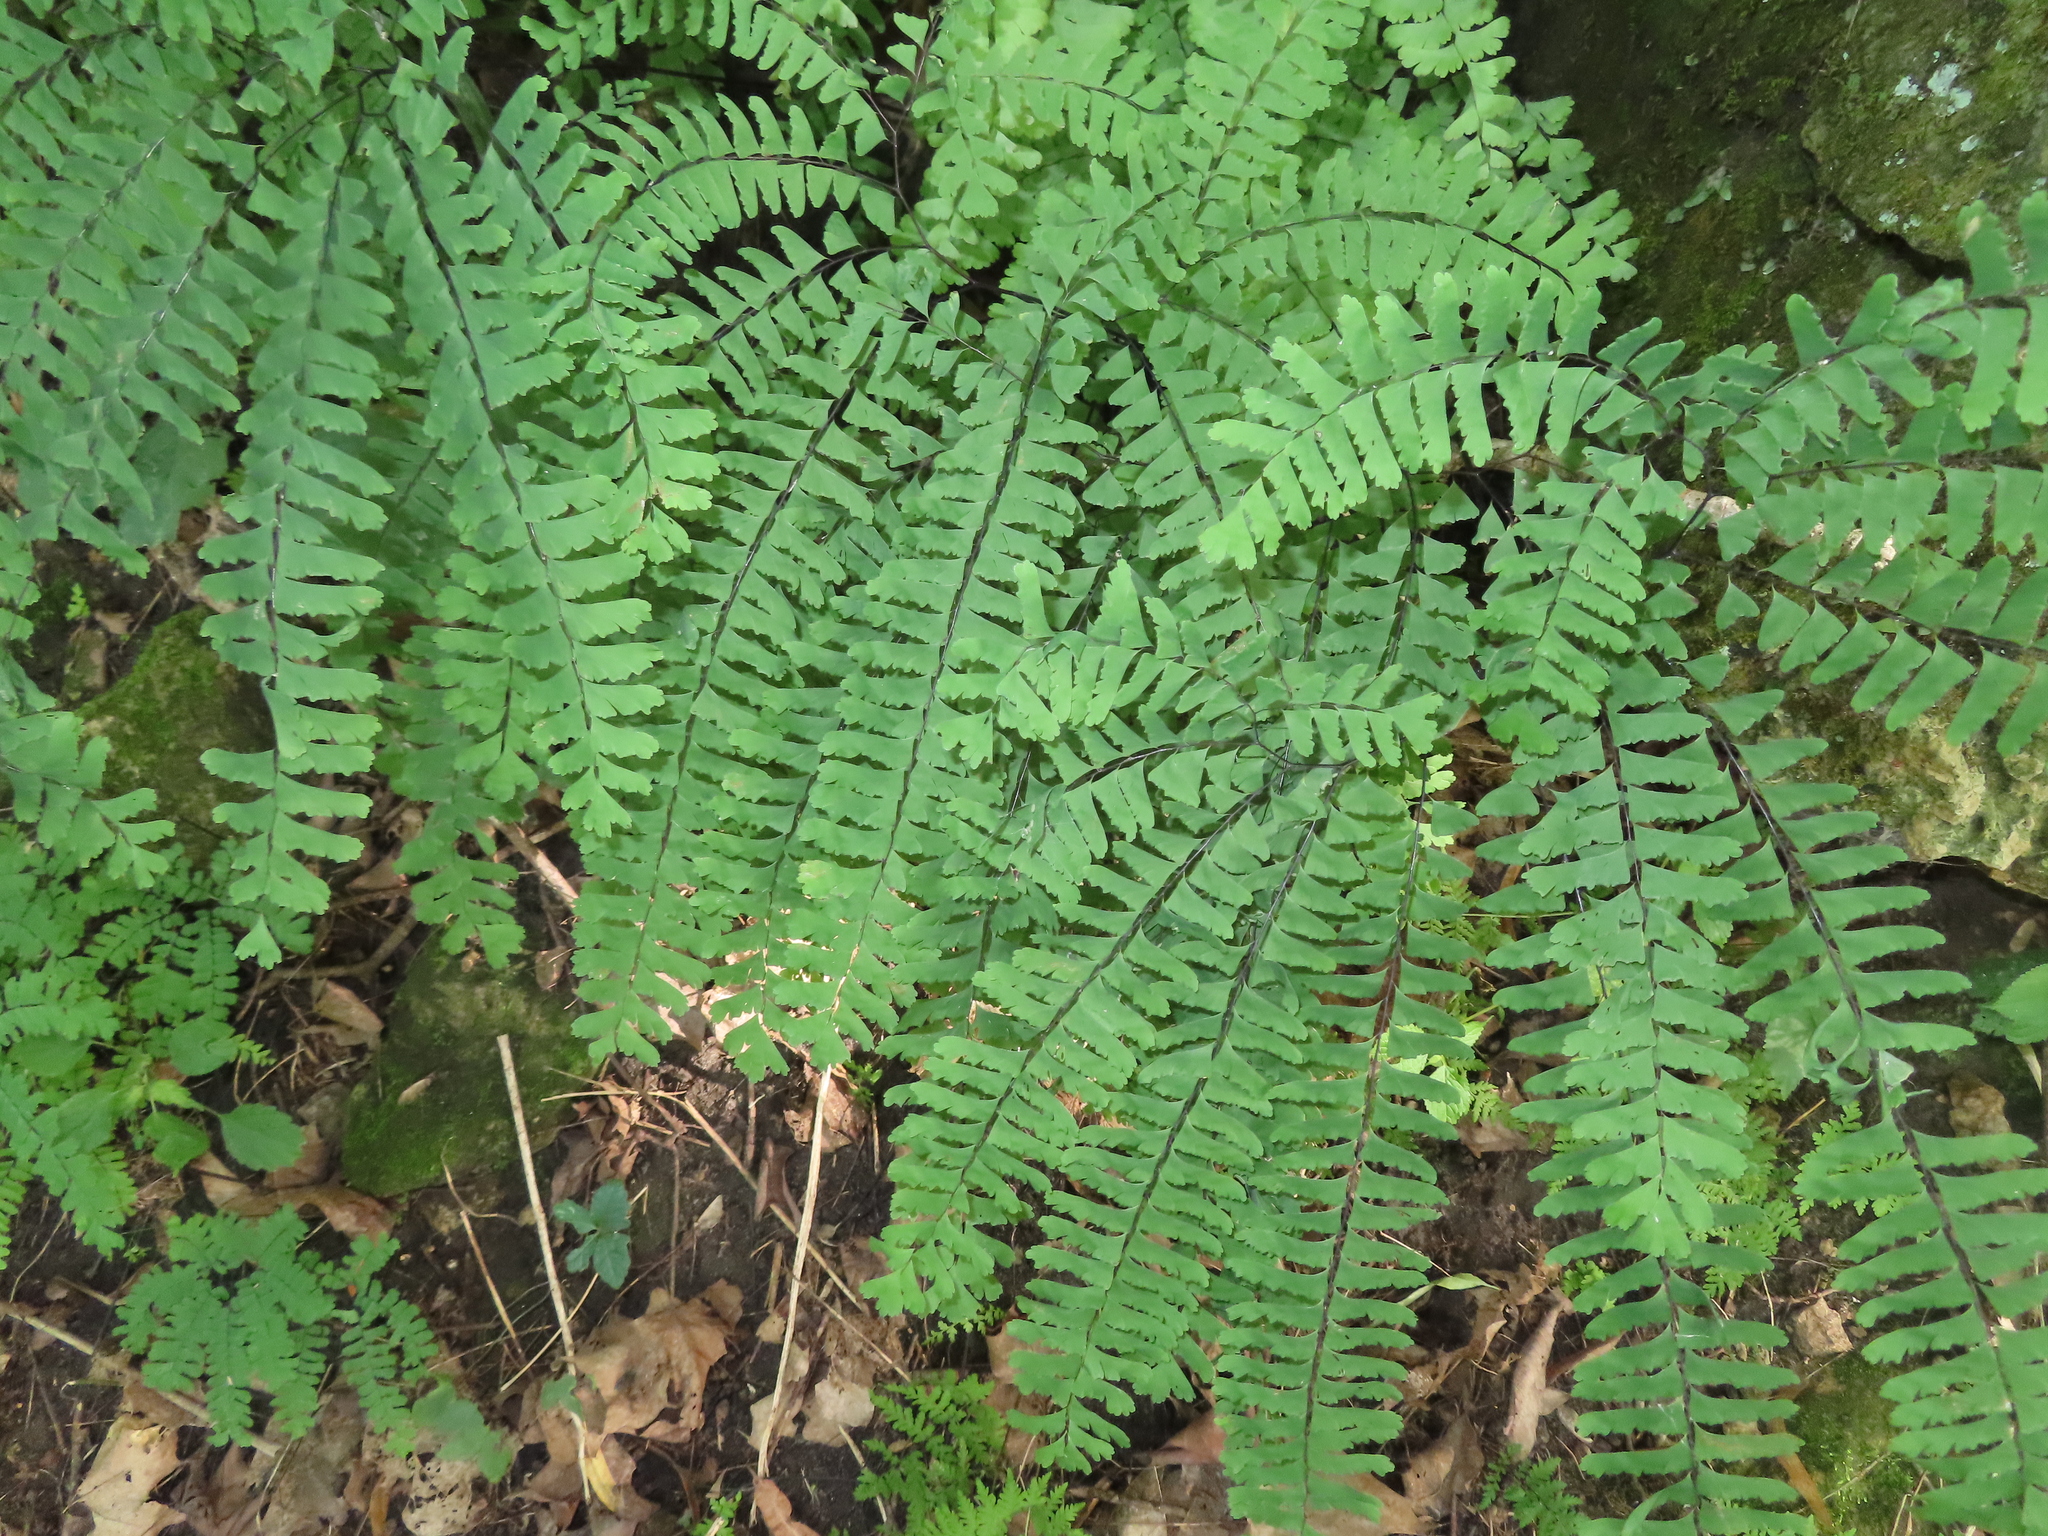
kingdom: Plantae
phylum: Tracheophyta
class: Polypodiopsida
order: Polypodiales
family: Pteridaceae
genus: Adiantum
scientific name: Adiantum pedatum
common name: Five-finger fern
